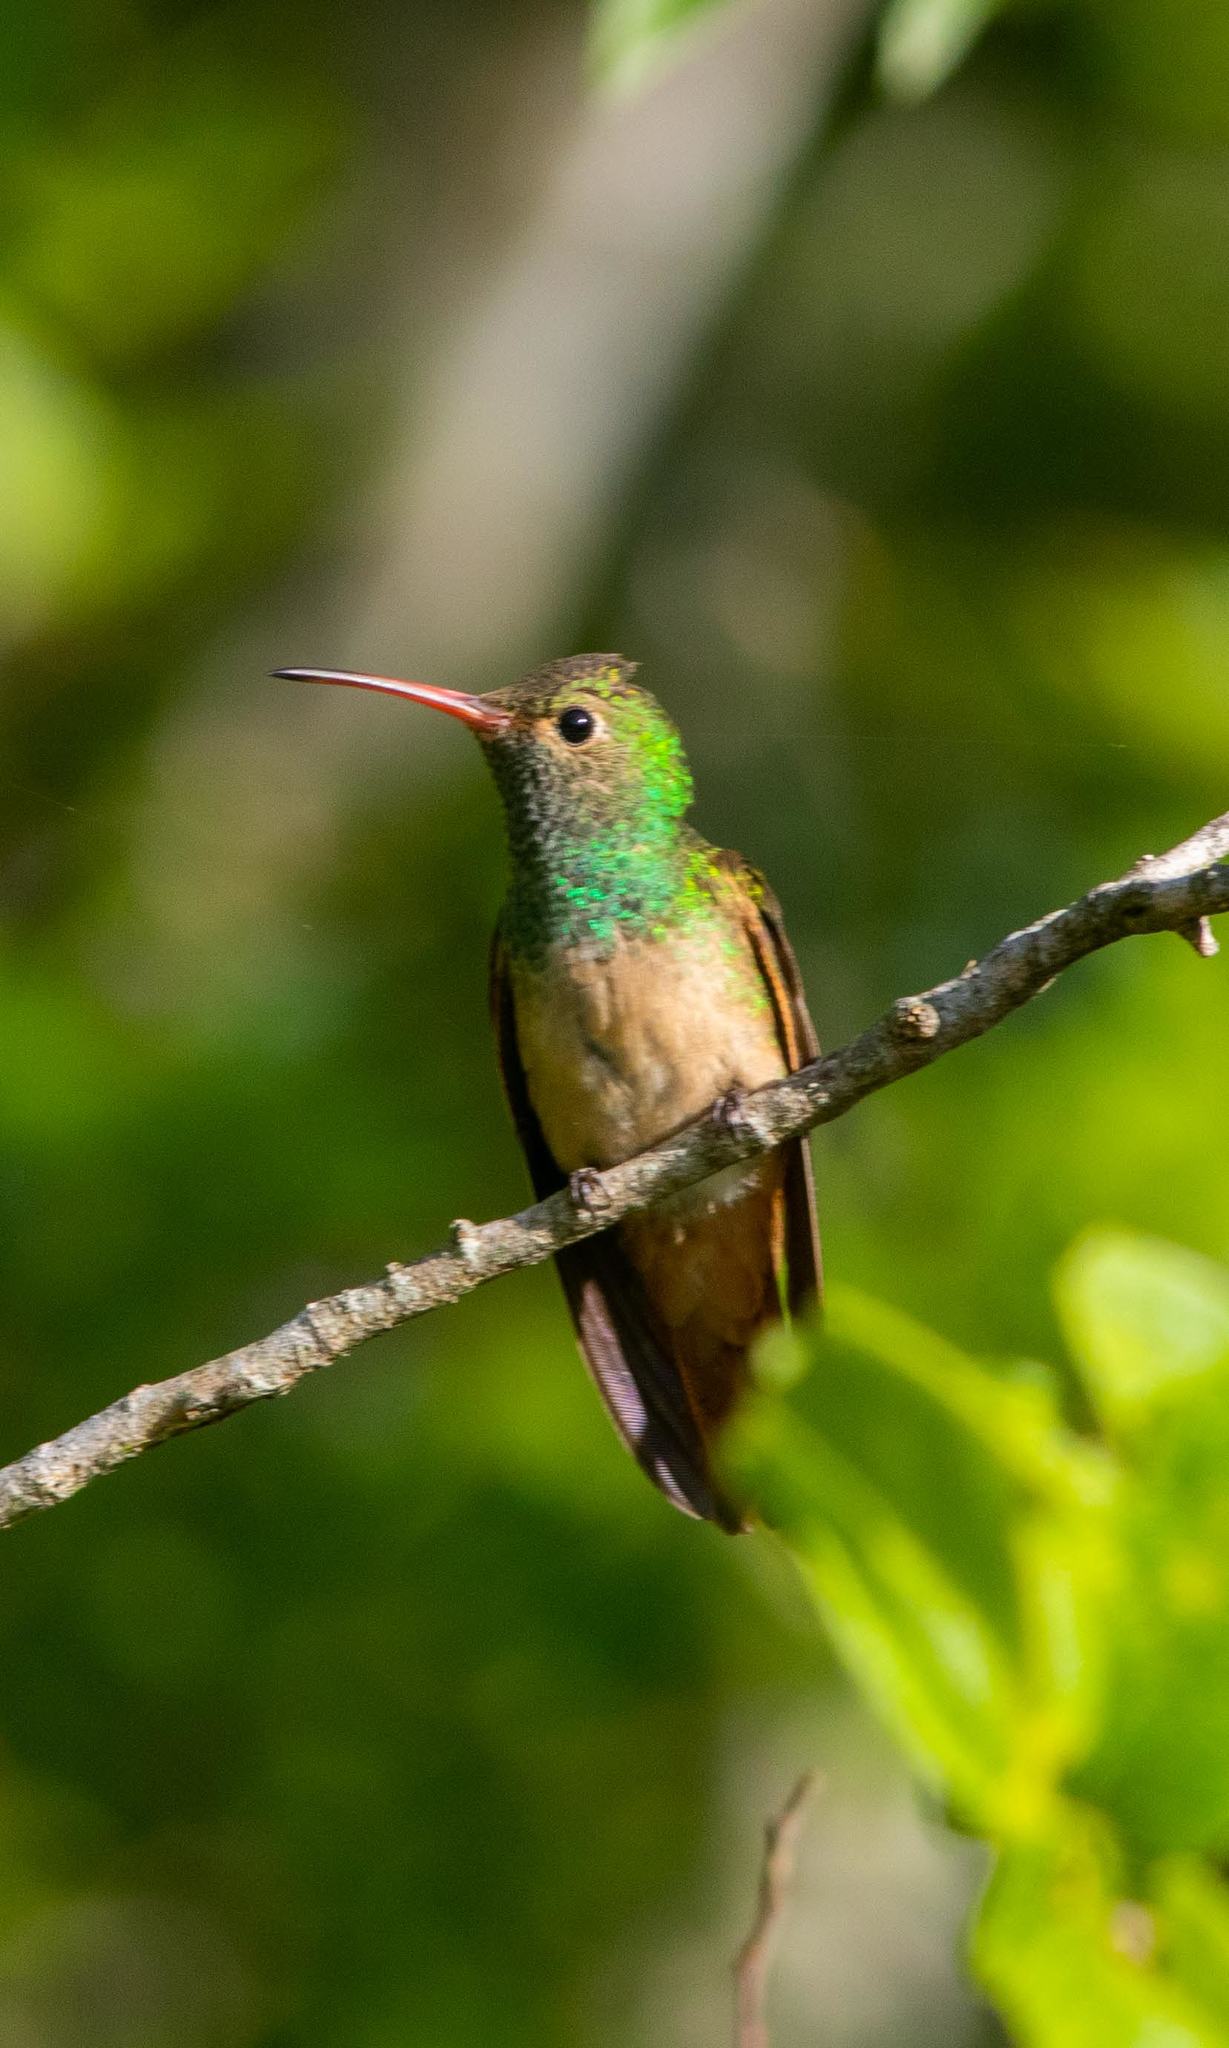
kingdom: Animalia
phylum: Chordata
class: Aves
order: Apodiformes
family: Trochilidae
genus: Amazilia
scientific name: Amazilia yucatanensis
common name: Buff-bellied hummingbird
